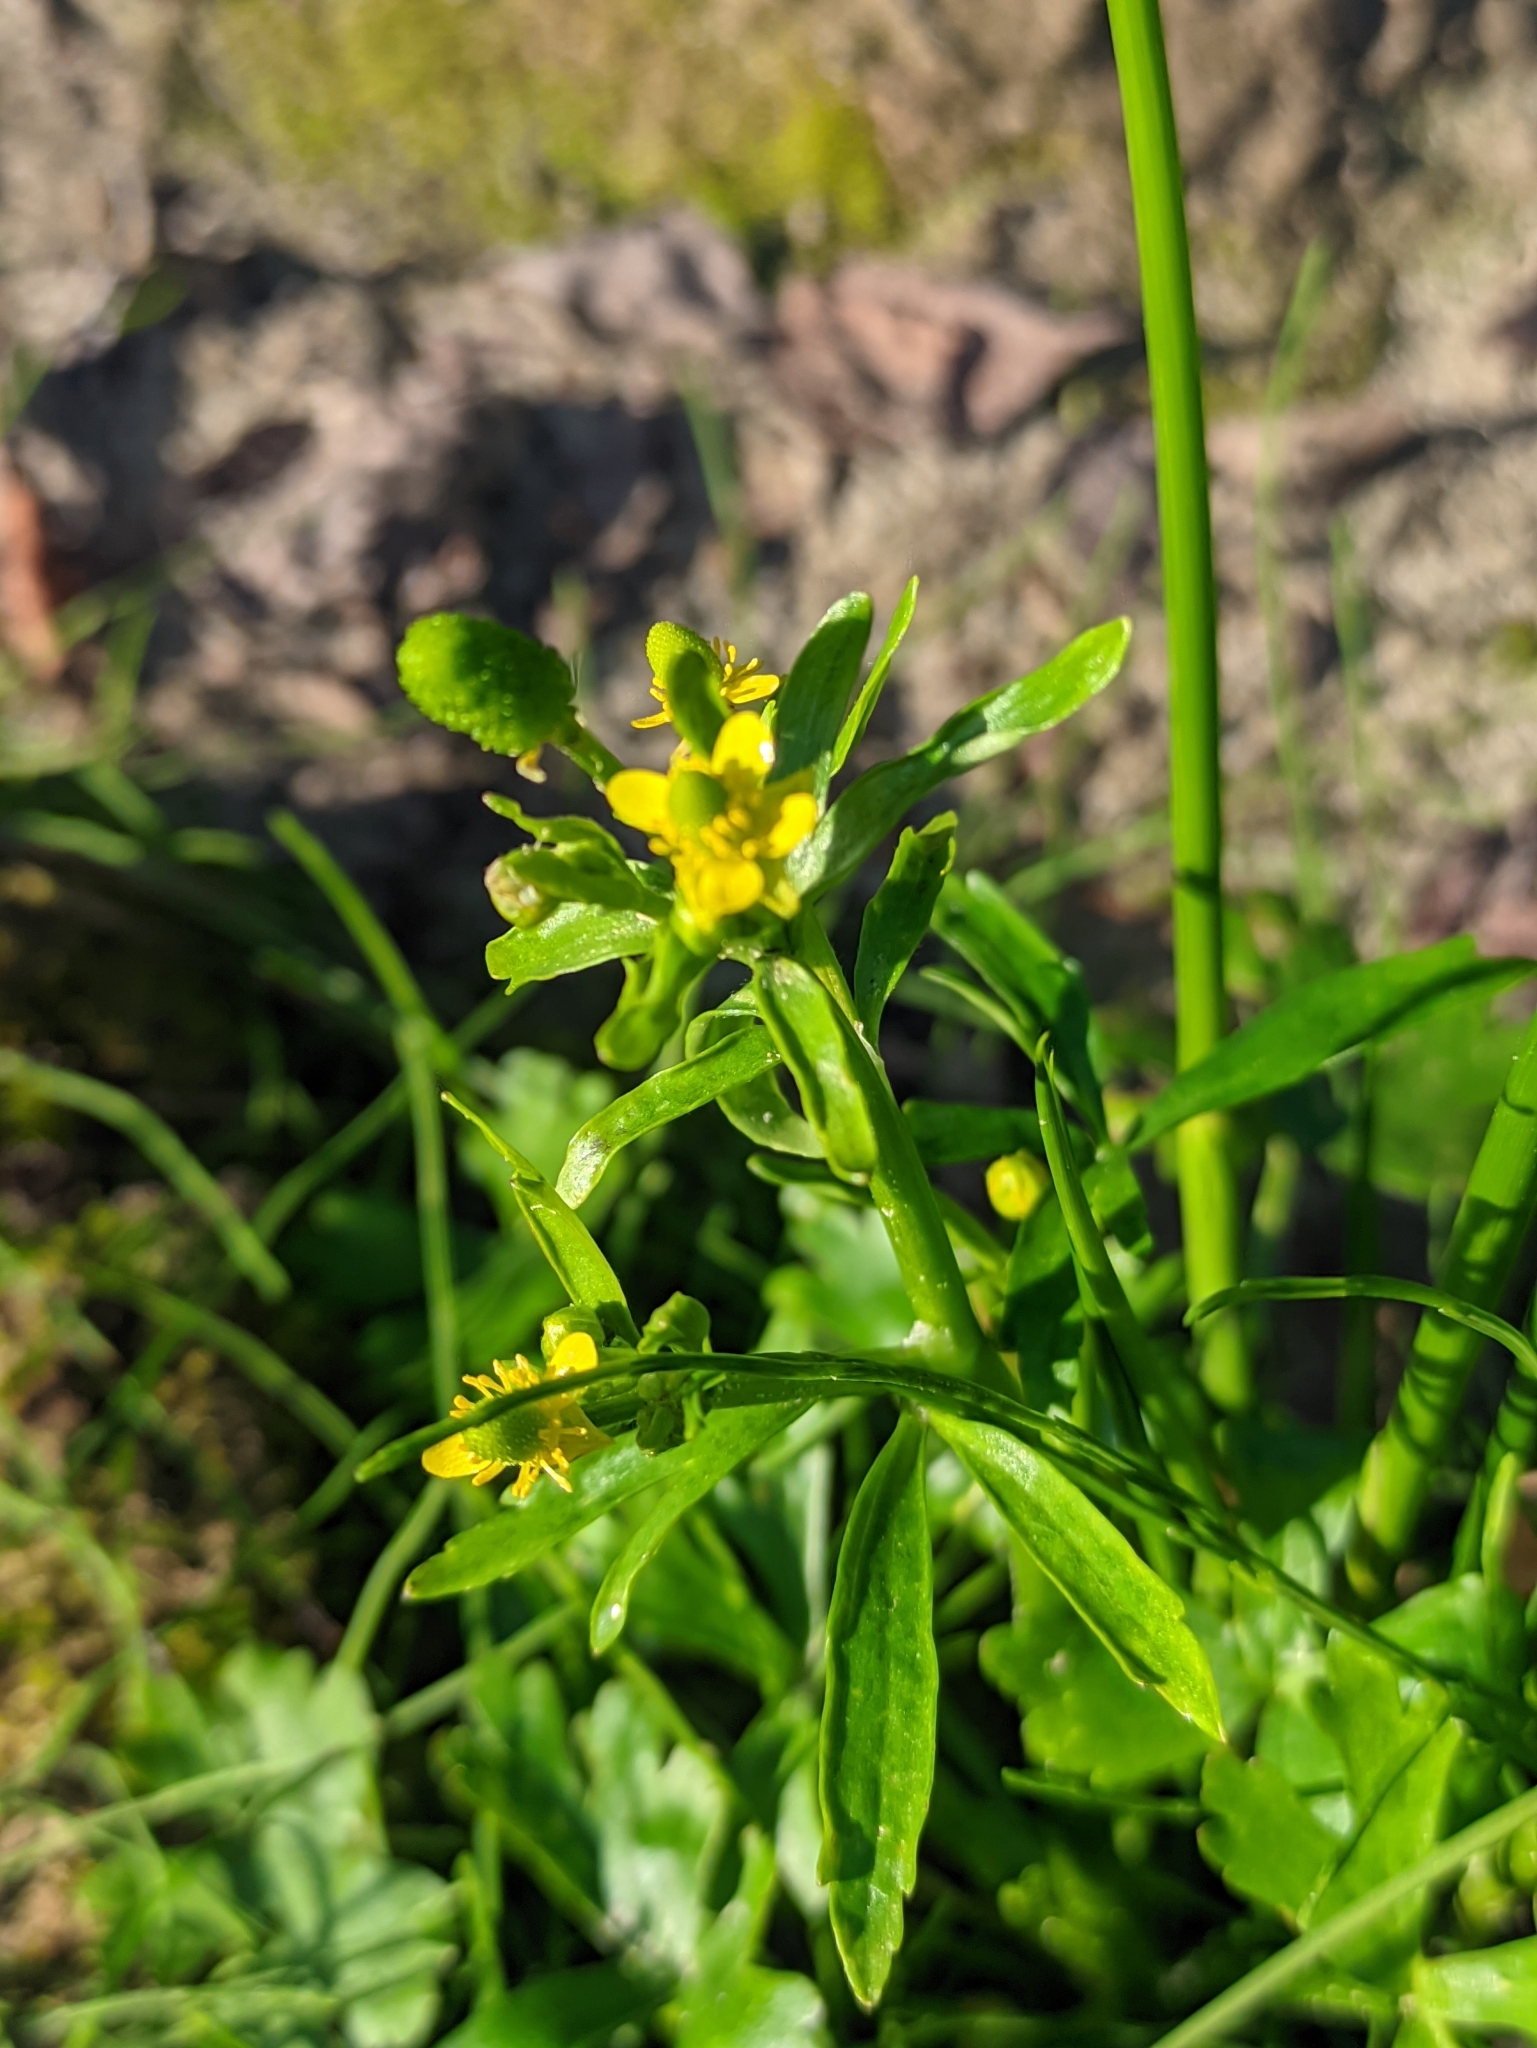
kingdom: Plantae
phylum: Tracheophyta
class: Magnoliopsida
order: Ranunculales
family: Ranunculaceae
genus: Ranunculus
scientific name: Ranunculus sceleratus
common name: Celery-leaved buttercup
